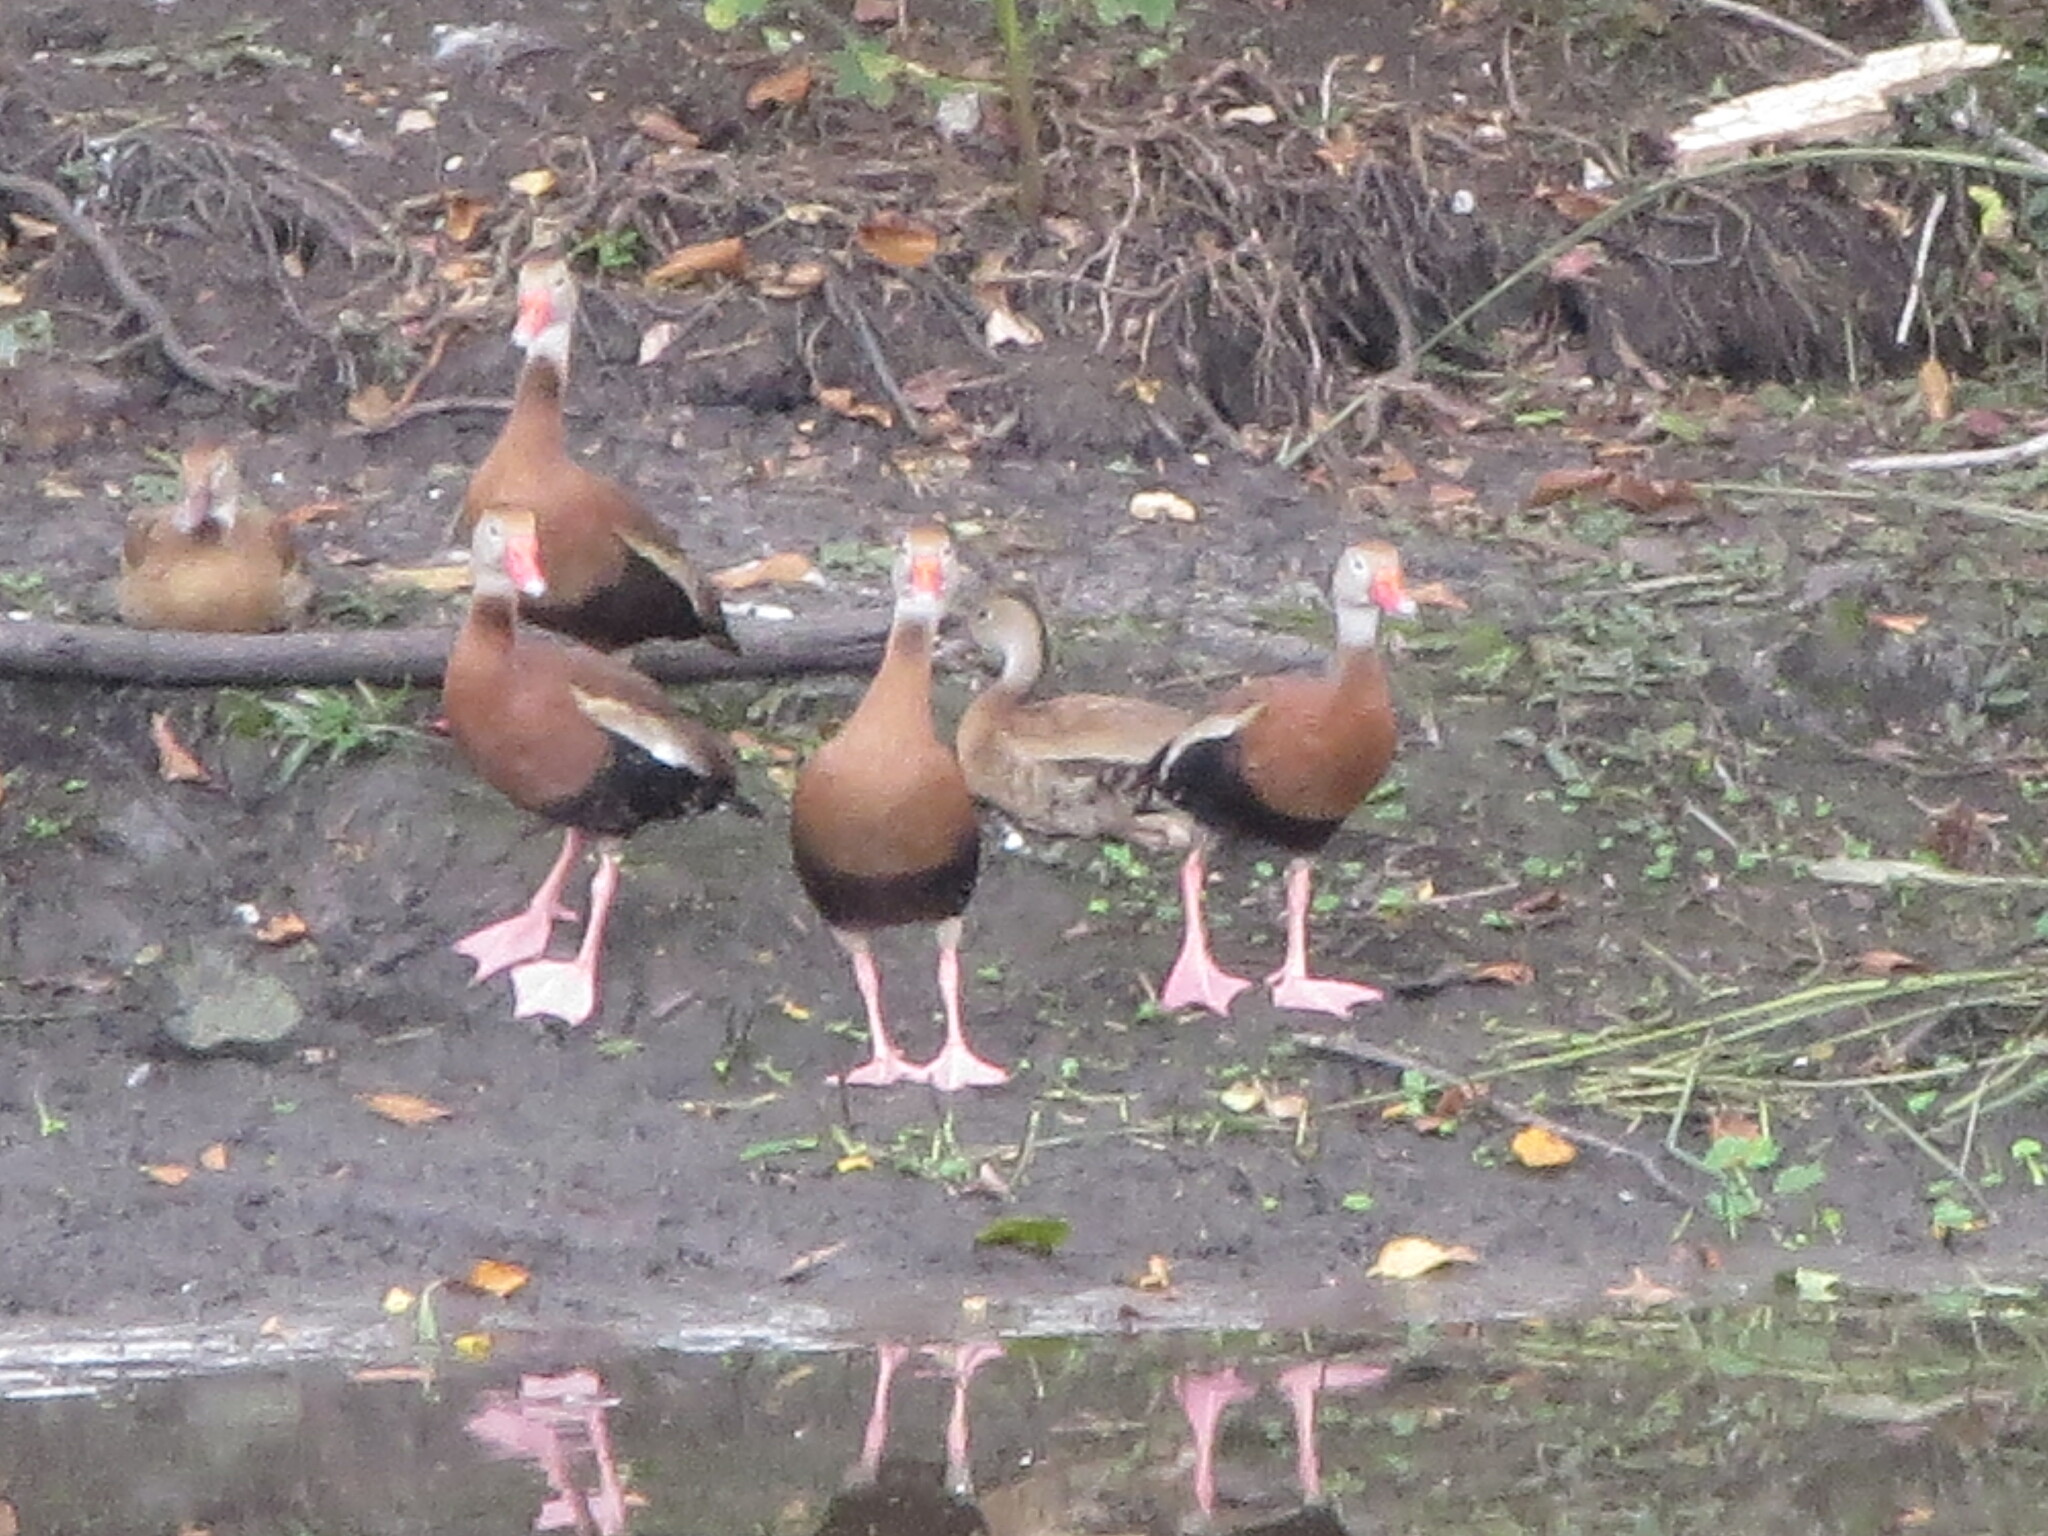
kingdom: Animalia
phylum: Chordata
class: Aves
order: Anseriformes
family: Anatidae
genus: Dendrocygna
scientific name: Dendrocygna autumnalis
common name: Black-bellied whistling duck
